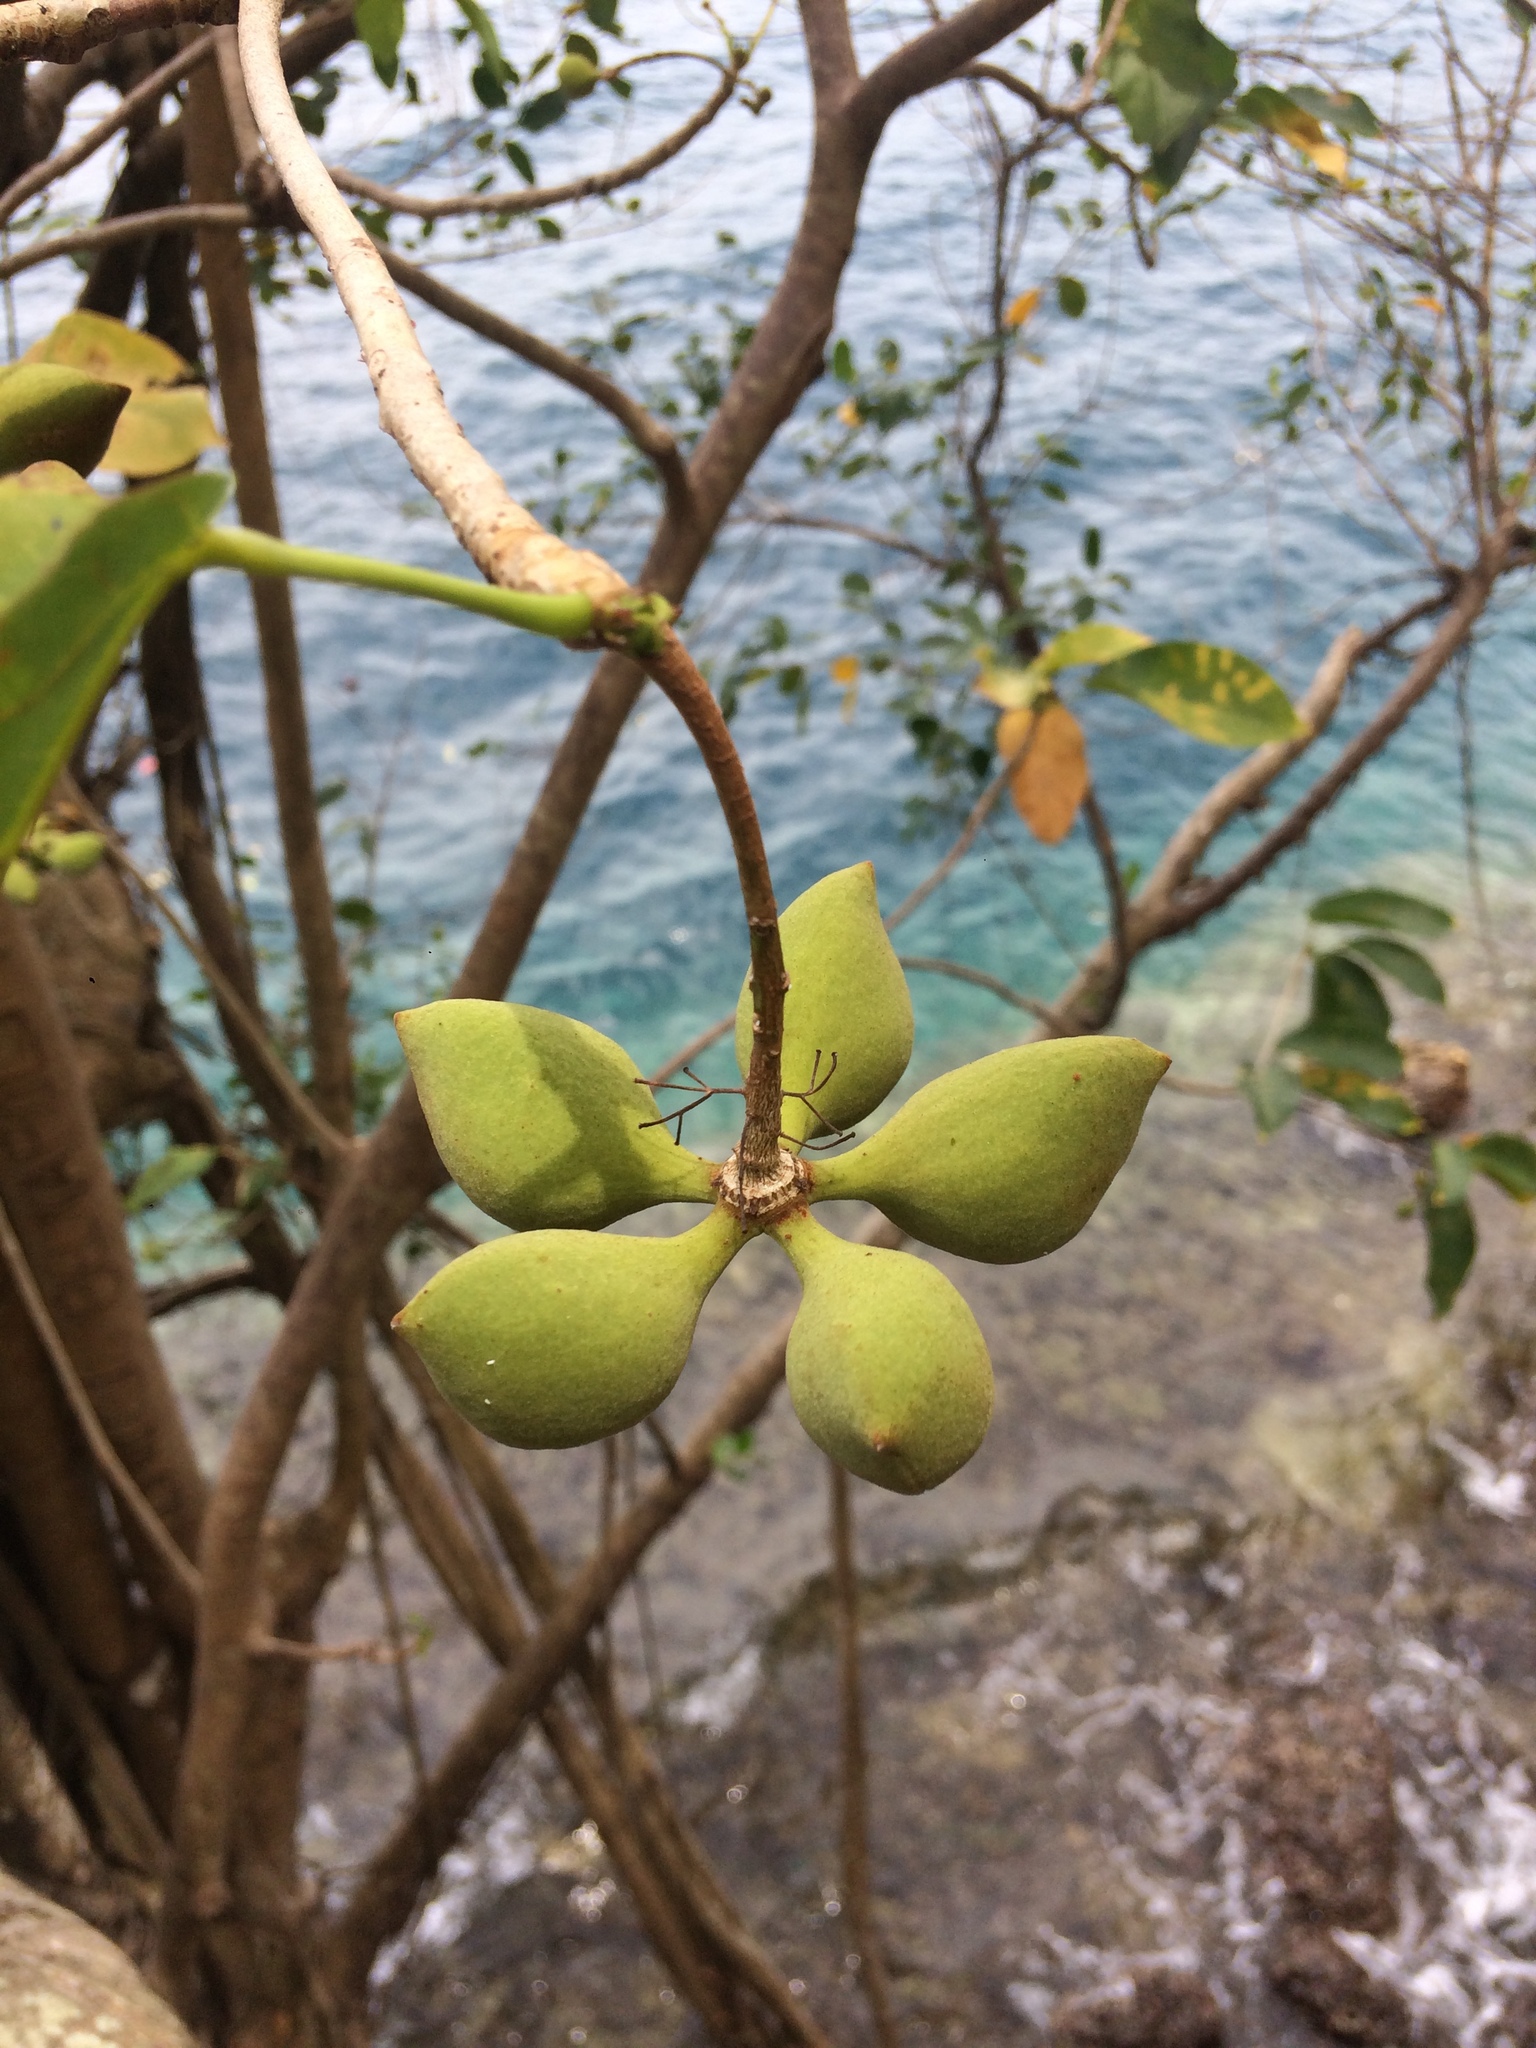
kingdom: Plantae
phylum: Tracheophyta
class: Magnoliopsida
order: Malvales
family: Malvaceae
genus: Sterculia
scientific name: Sterculia ceramica
